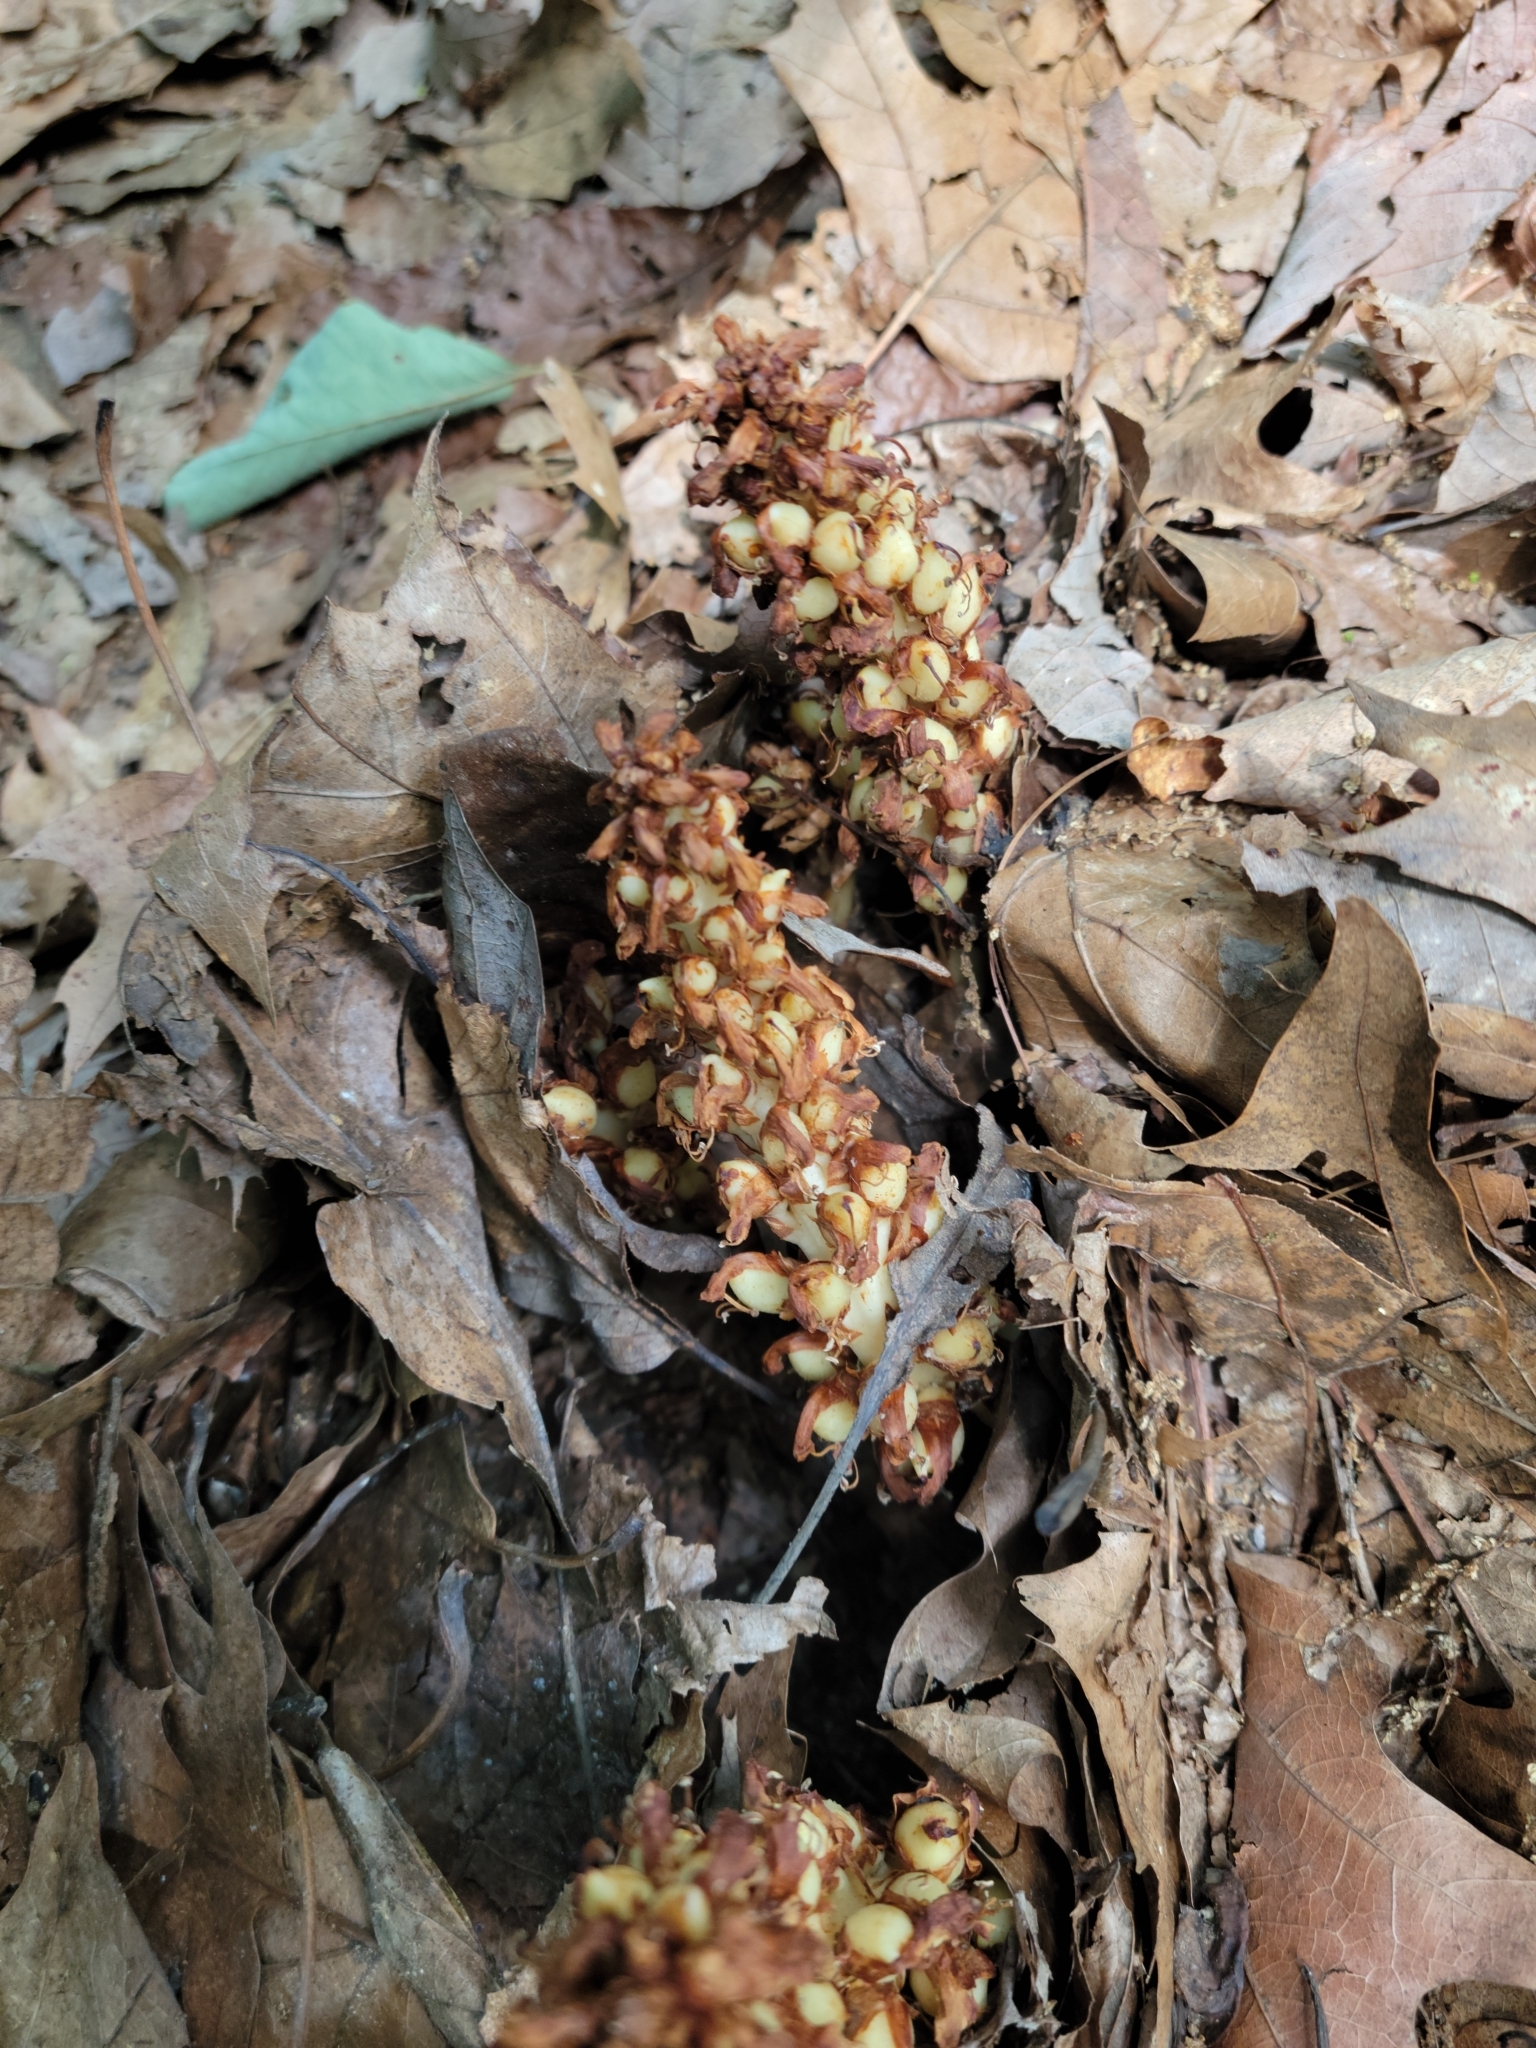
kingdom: Plantae
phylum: Tracheophyta
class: Magnoliopsida
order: Lamiales
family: Orobanchaceae
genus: Conopholis
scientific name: Conopholis americana
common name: American cancer-root
